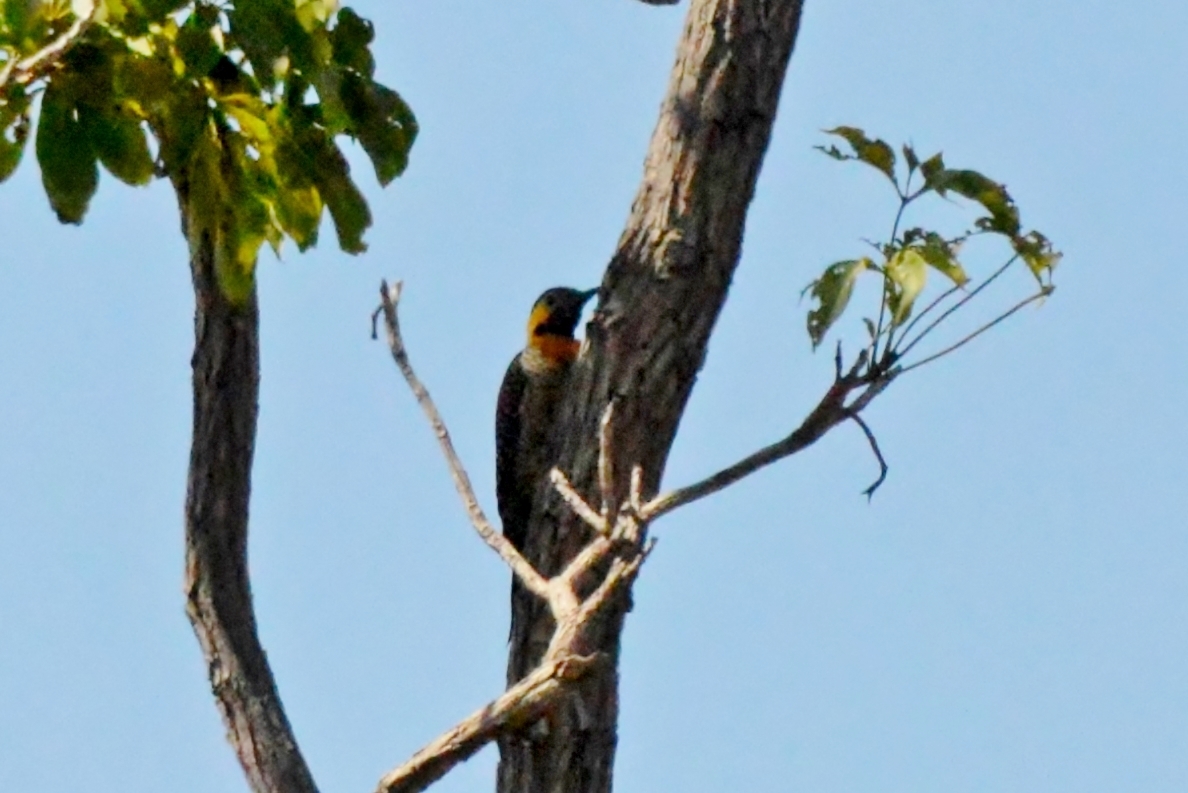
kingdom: Animalia
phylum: Chordata
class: Aves
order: Piciformes
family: Picidae
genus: Colaptes
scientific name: Colaptes campestris
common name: Campo flicker
